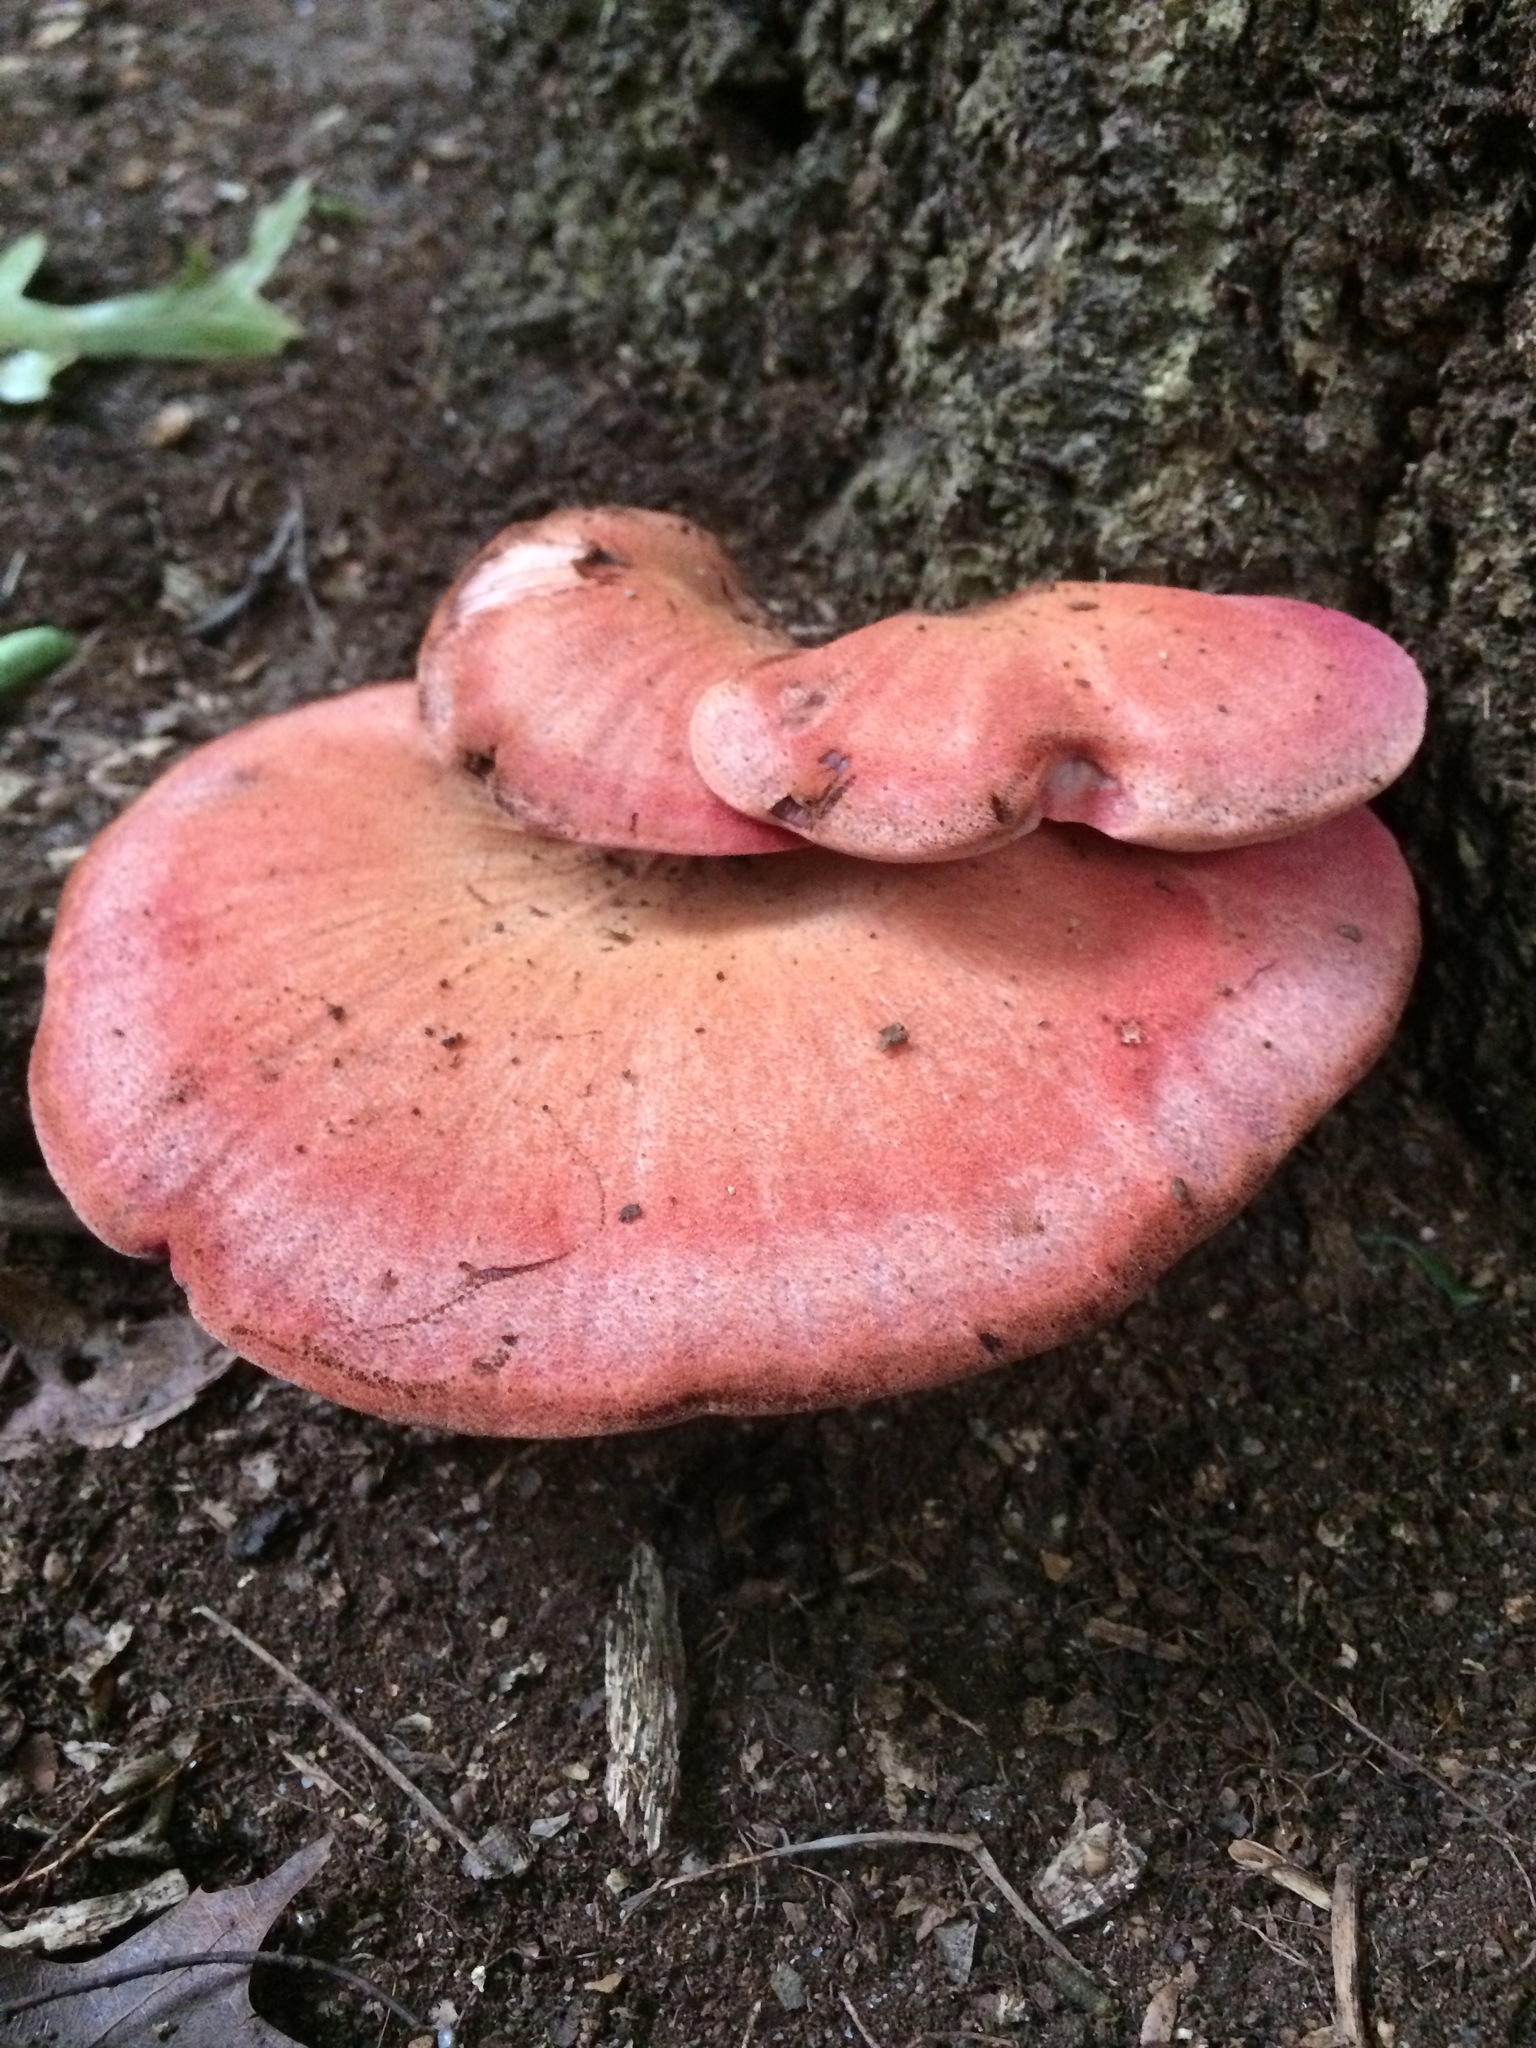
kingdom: Fungi
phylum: Basidiomycota
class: Agaricomycetes
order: Agaricales
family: Fistulinaceae
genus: Fistulina
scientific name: Fistulina hepatica
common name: Beef-steak fungus
